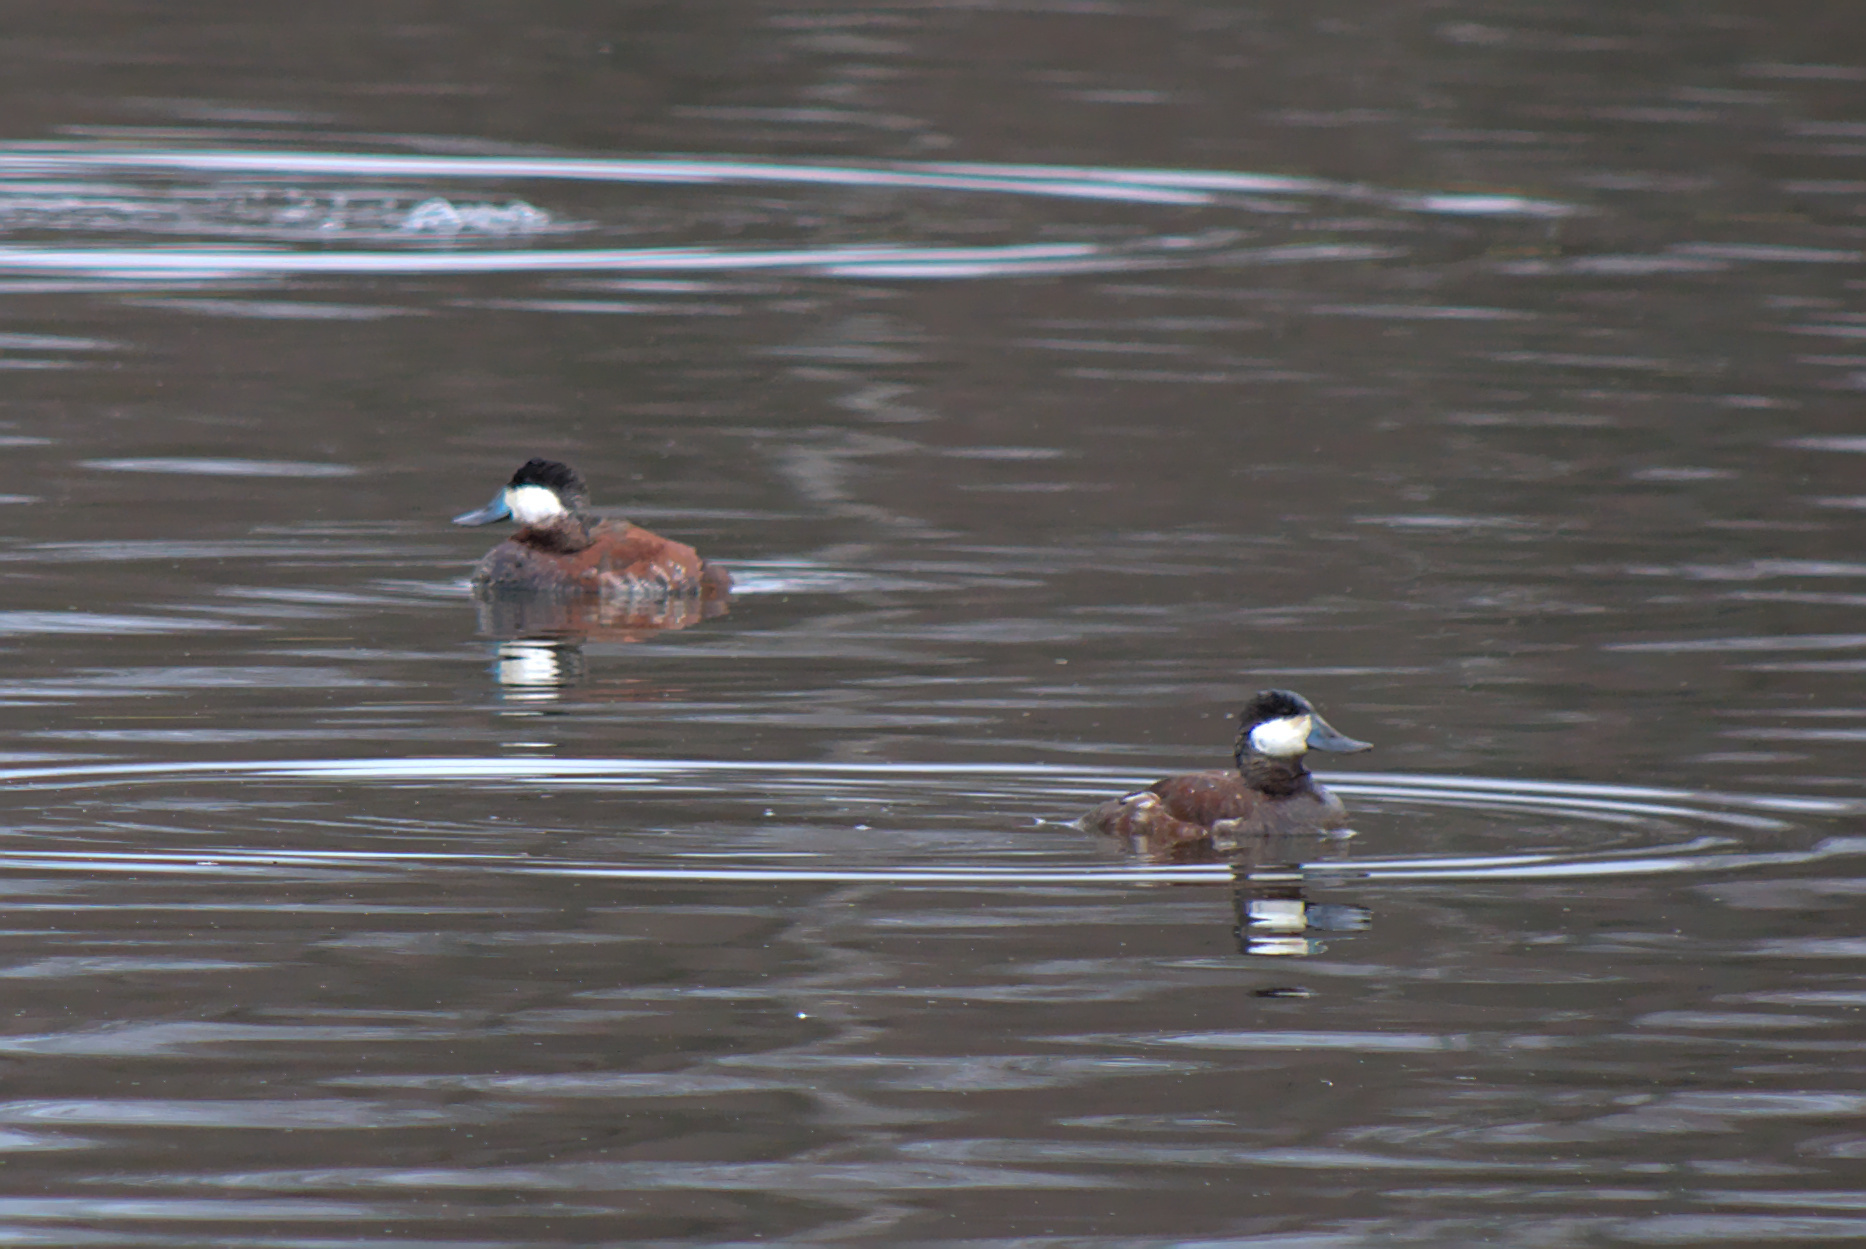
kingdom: Animalia
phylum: Chordata
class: Aves
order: Anseriformes
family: Anatidae
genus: Oxyura
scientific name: Oxyura jamaicensis
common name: Ruddy duck
